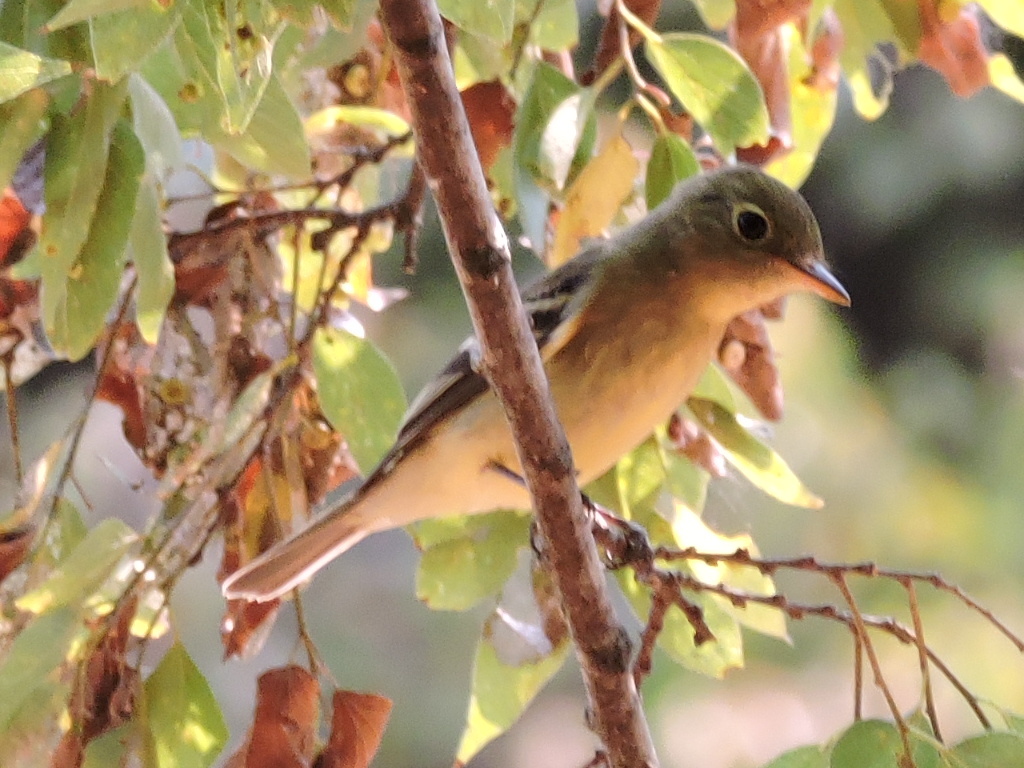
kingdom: Animalia
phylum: Chordata
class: Aves
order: Passeriformes
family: Tyrannidae
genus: Empidonax
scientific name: Empidonax flaviventris
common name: Yellow-bellied flycatcher
